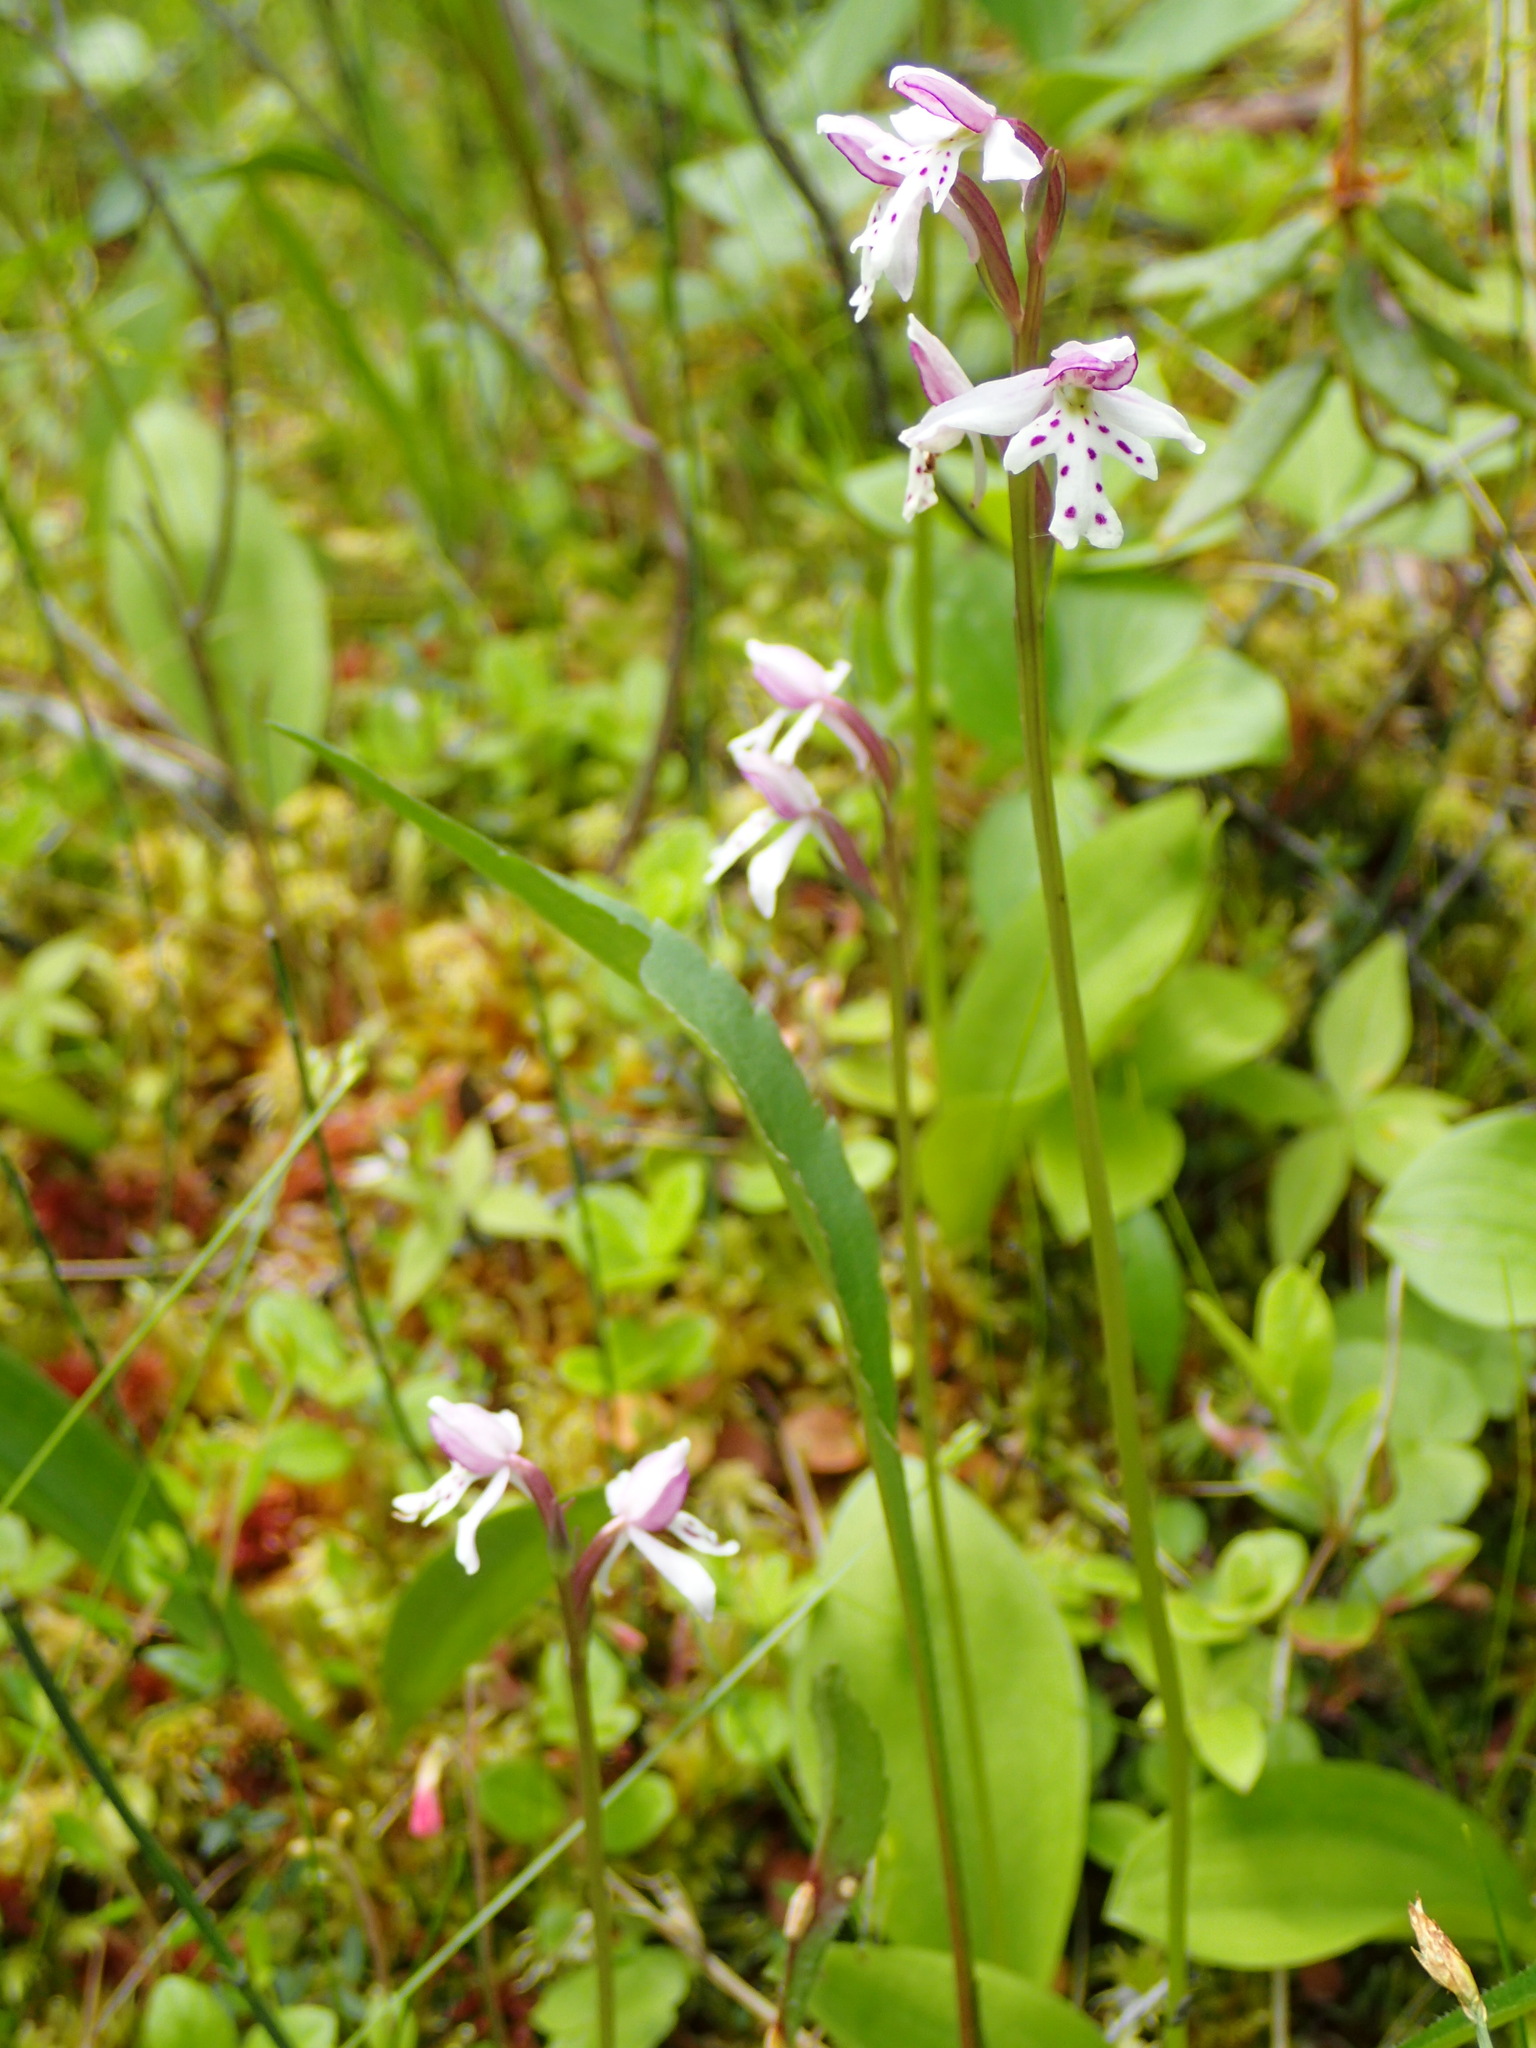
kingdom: Plantae
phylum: Tracheophyta
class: Liliopsida
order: Asparagales
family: Orchidaceae
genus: Galearis
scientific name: Galearis rotundifolia
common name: One-leaved orchis
